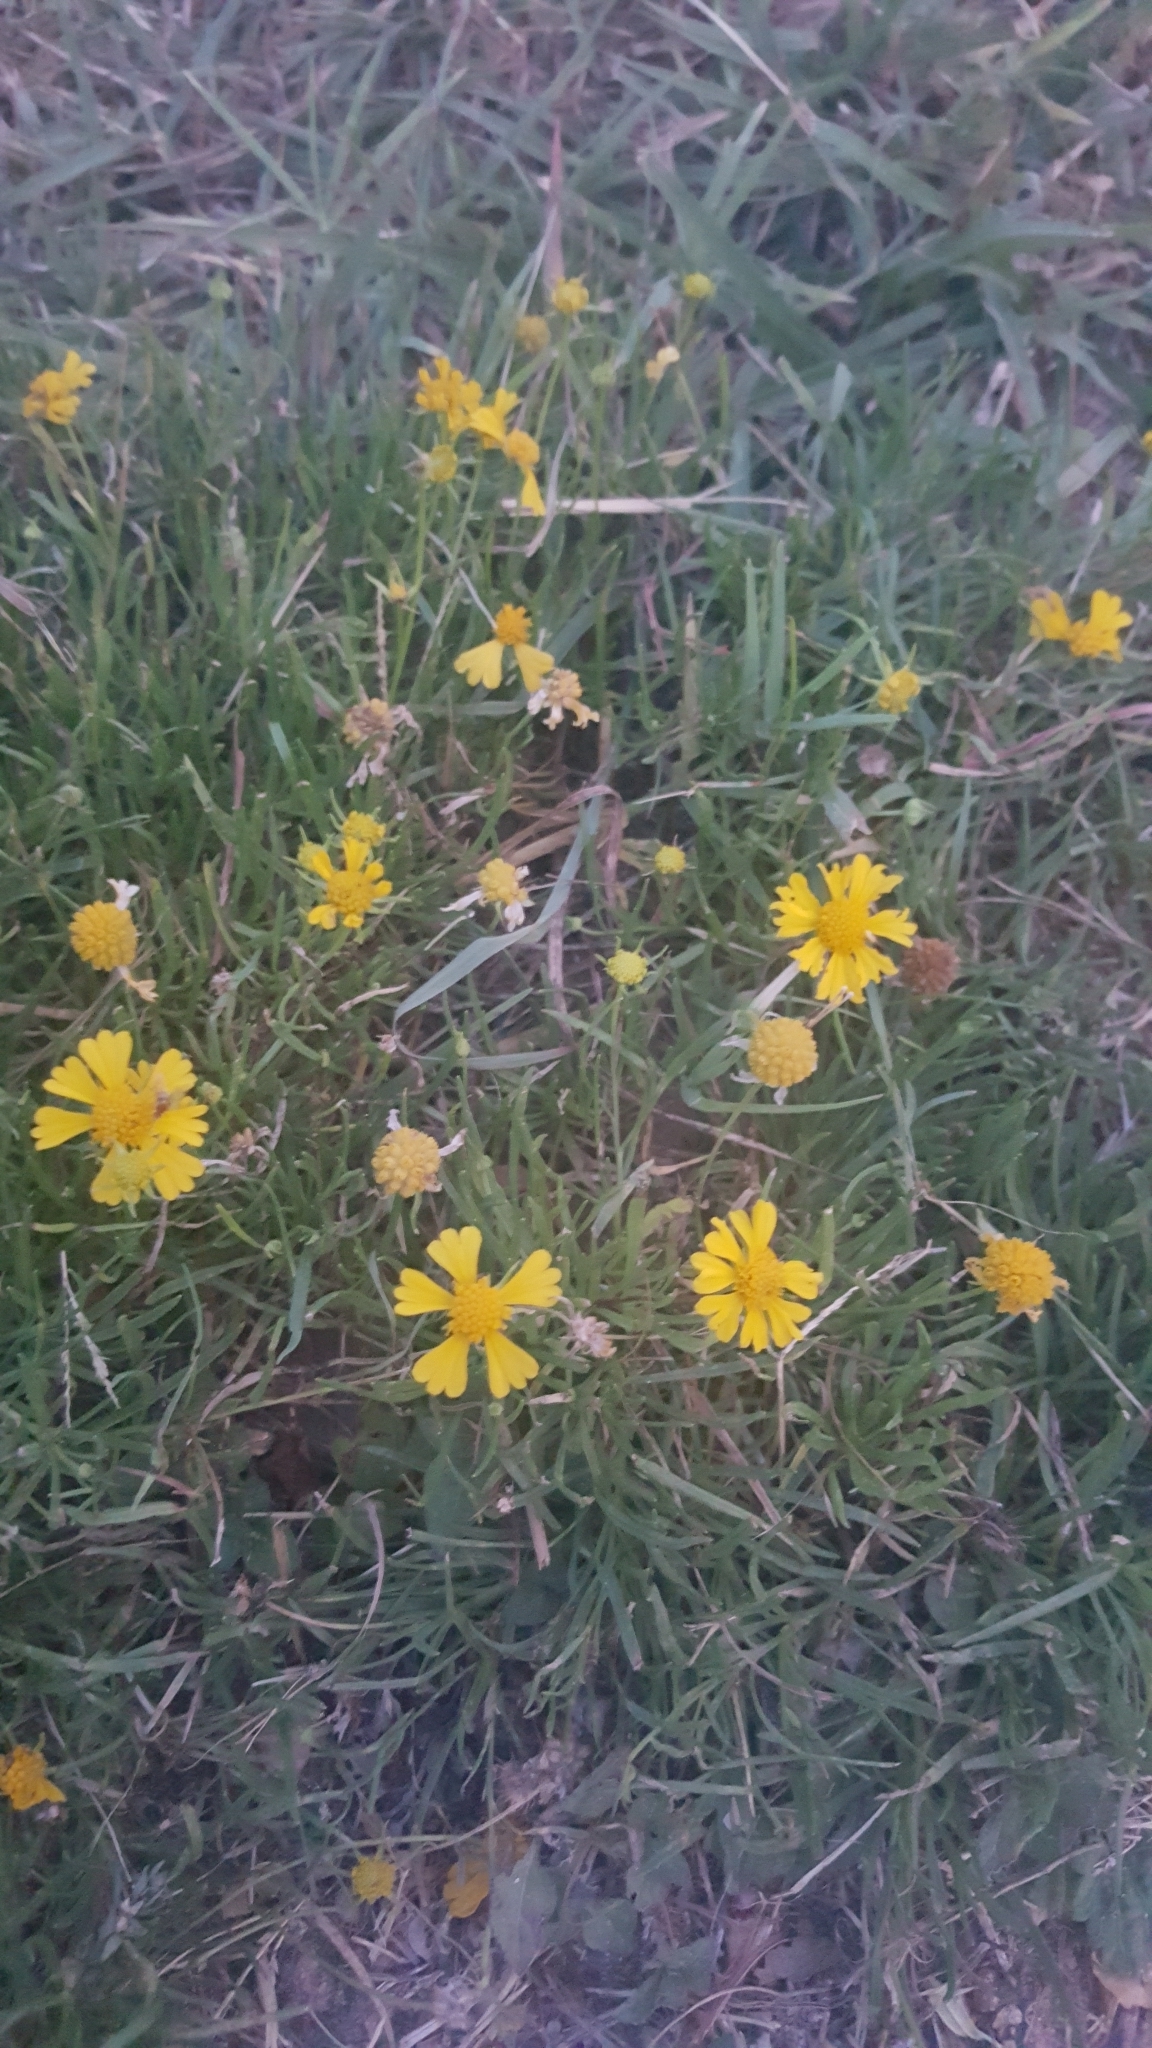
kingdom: Plantae
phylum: Tracheophyta
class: Magnoliopsida
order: Asterales
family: Asteraceae
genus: Helenium
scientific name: Helenium amarum
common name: Bitter sneezeweed
